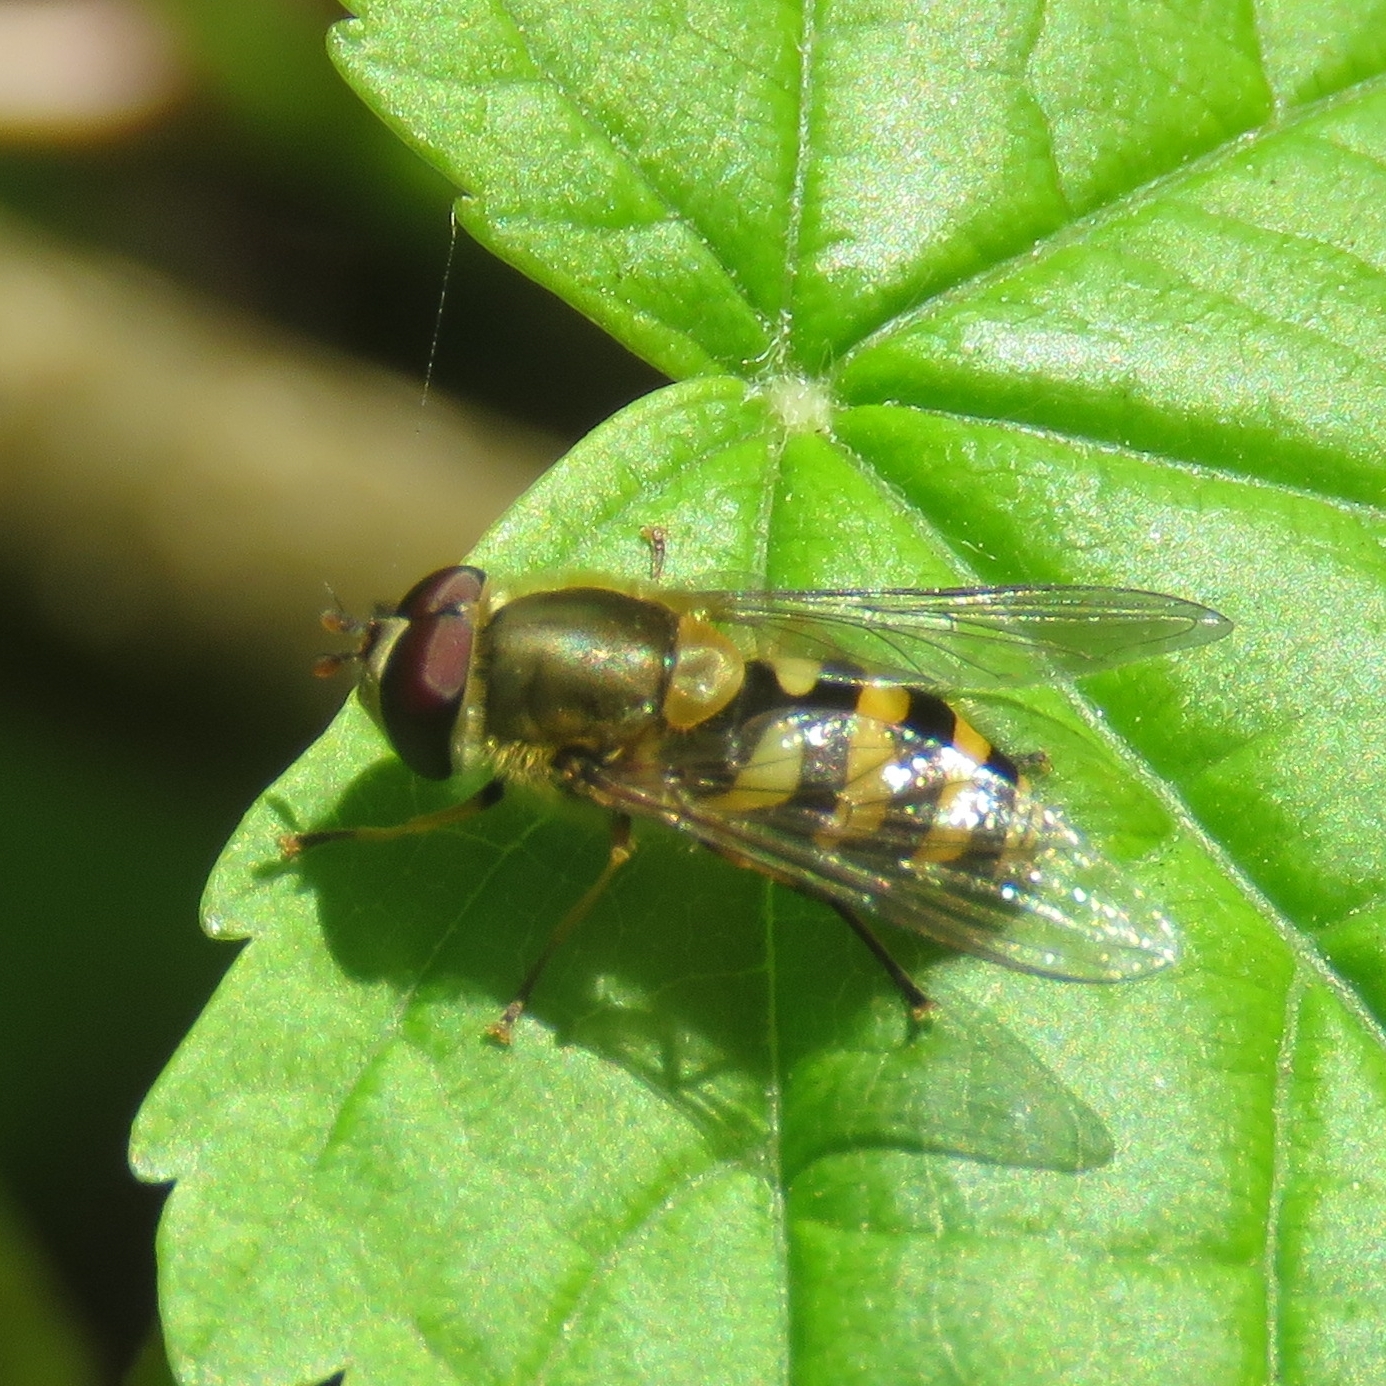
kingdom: Animalia
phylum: Arthropoda
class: Insecta
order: Diptera
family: Syrphidae
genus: Syrphus
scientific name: Syrphus
